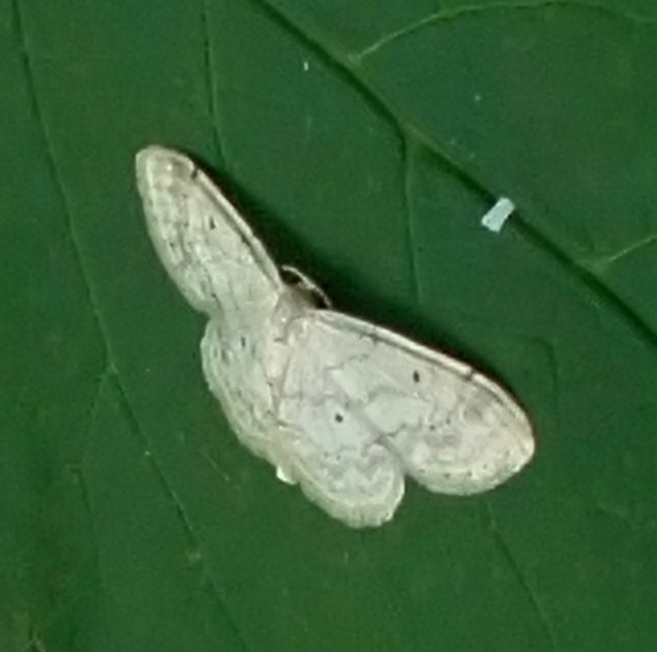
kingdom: Animalia
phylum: Arthropoda
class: Insecta
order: Lepidoptera
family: Geometridae
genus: Idaea
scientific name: Idaea biselata
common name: Small fan-footed wave
